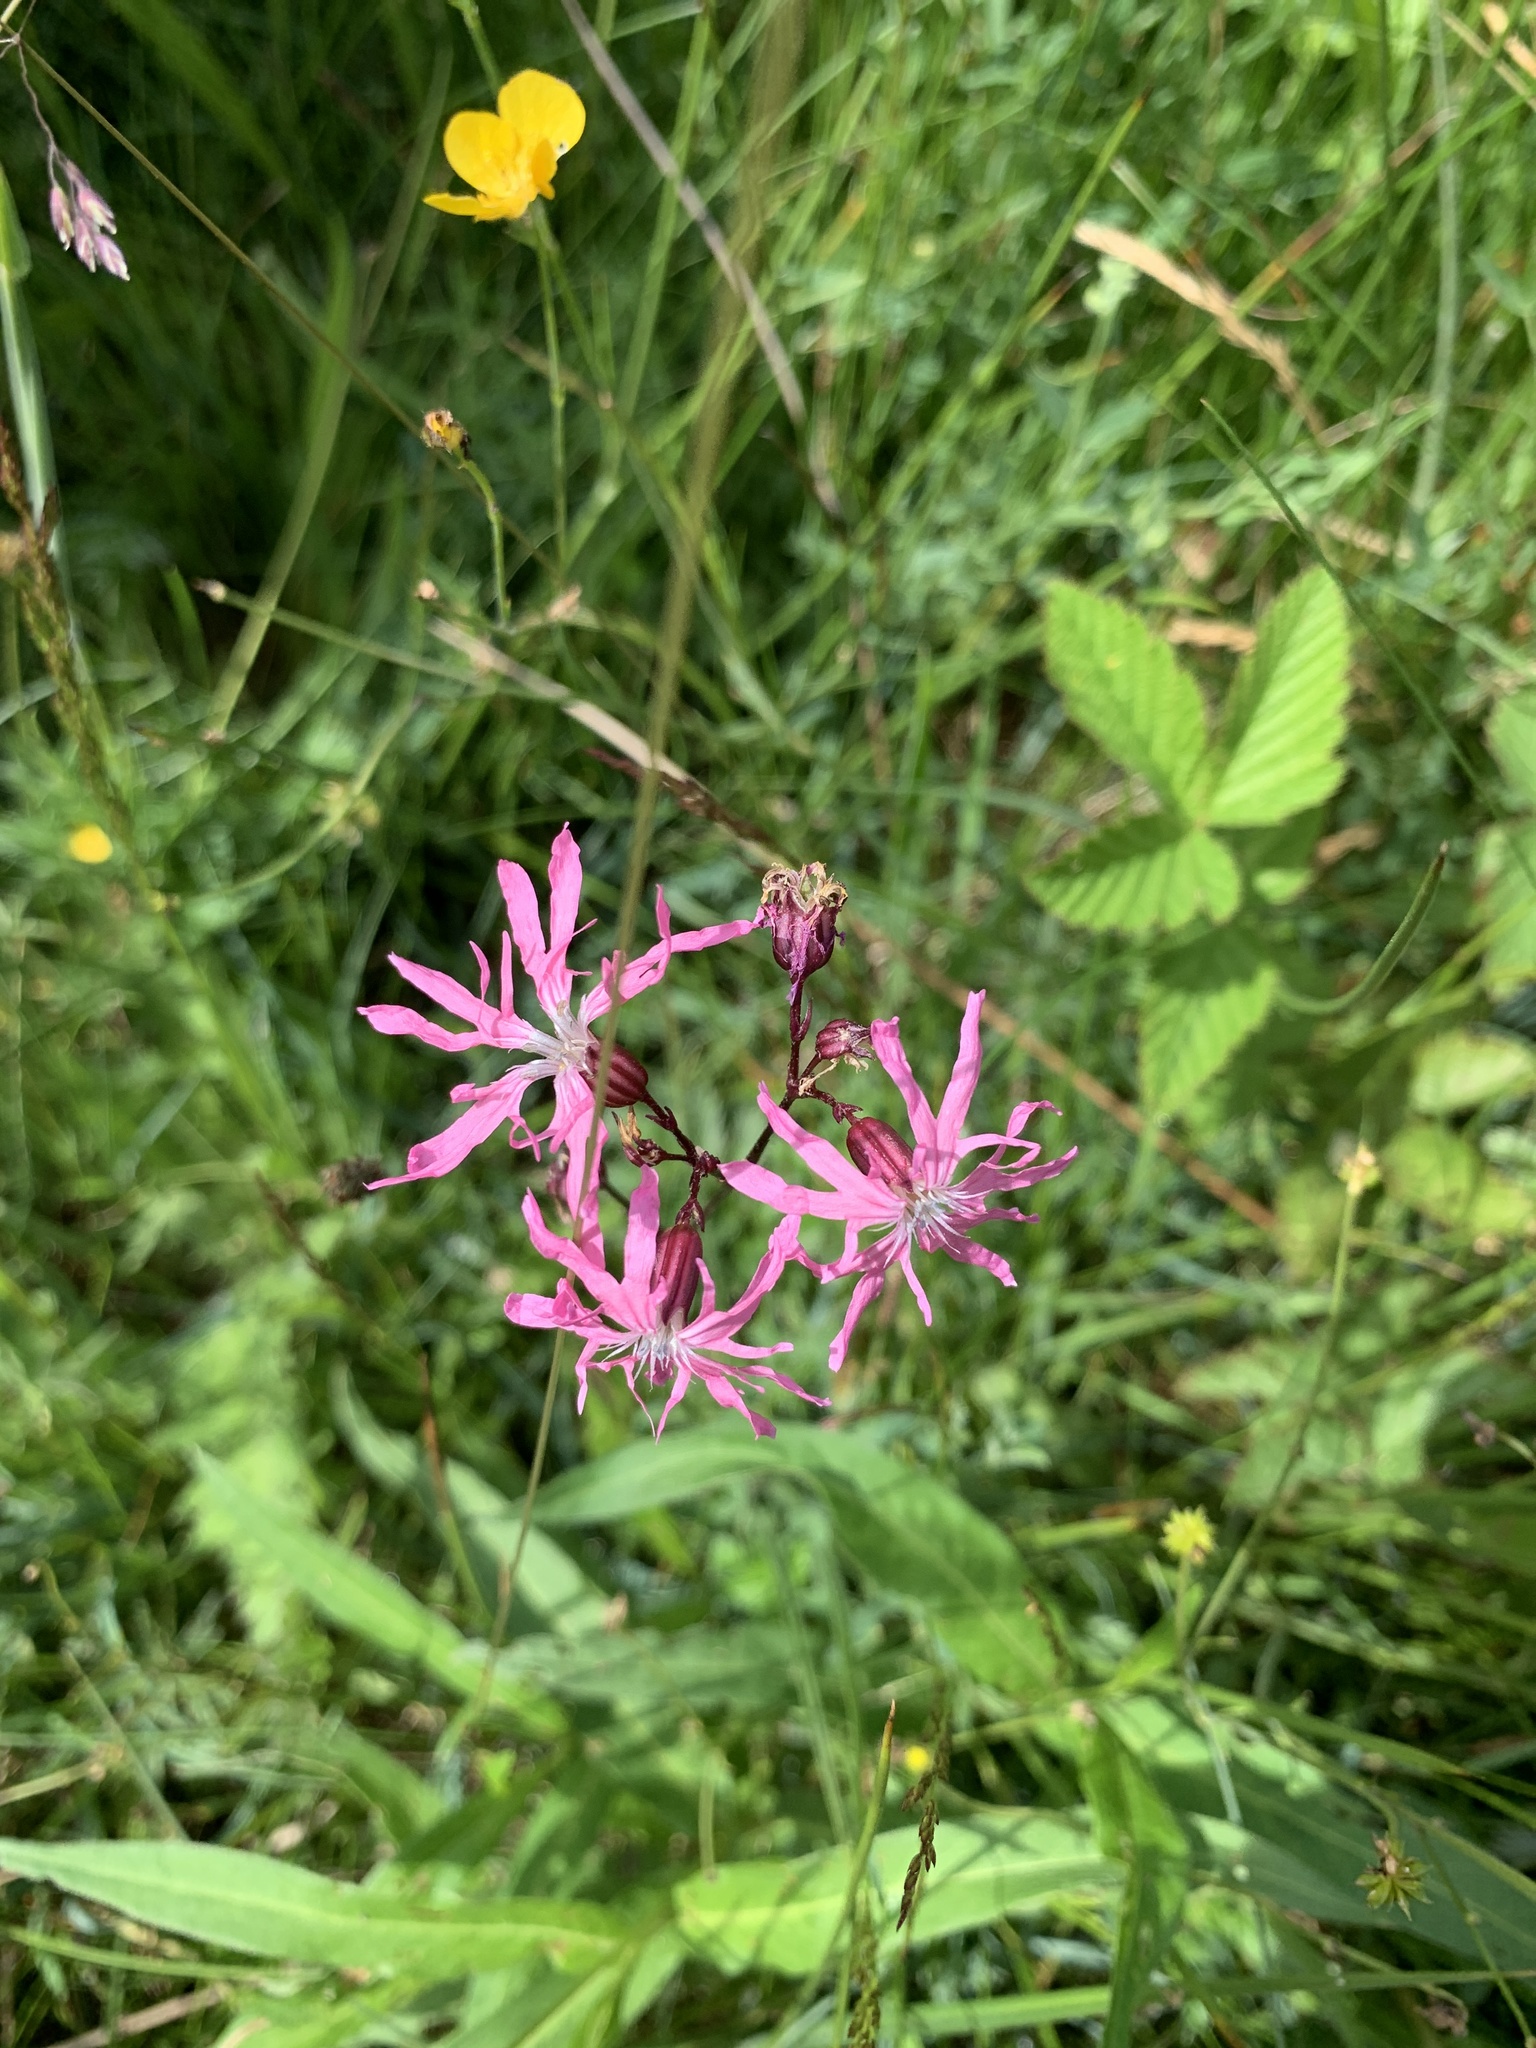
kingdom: Plantae
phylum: Tracheophyta
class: Magnoliopsida
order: Caryophyllales
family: Caryophyllaceae
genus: Silene
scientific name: Silene flos-cuculi
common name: Ragged-robin
